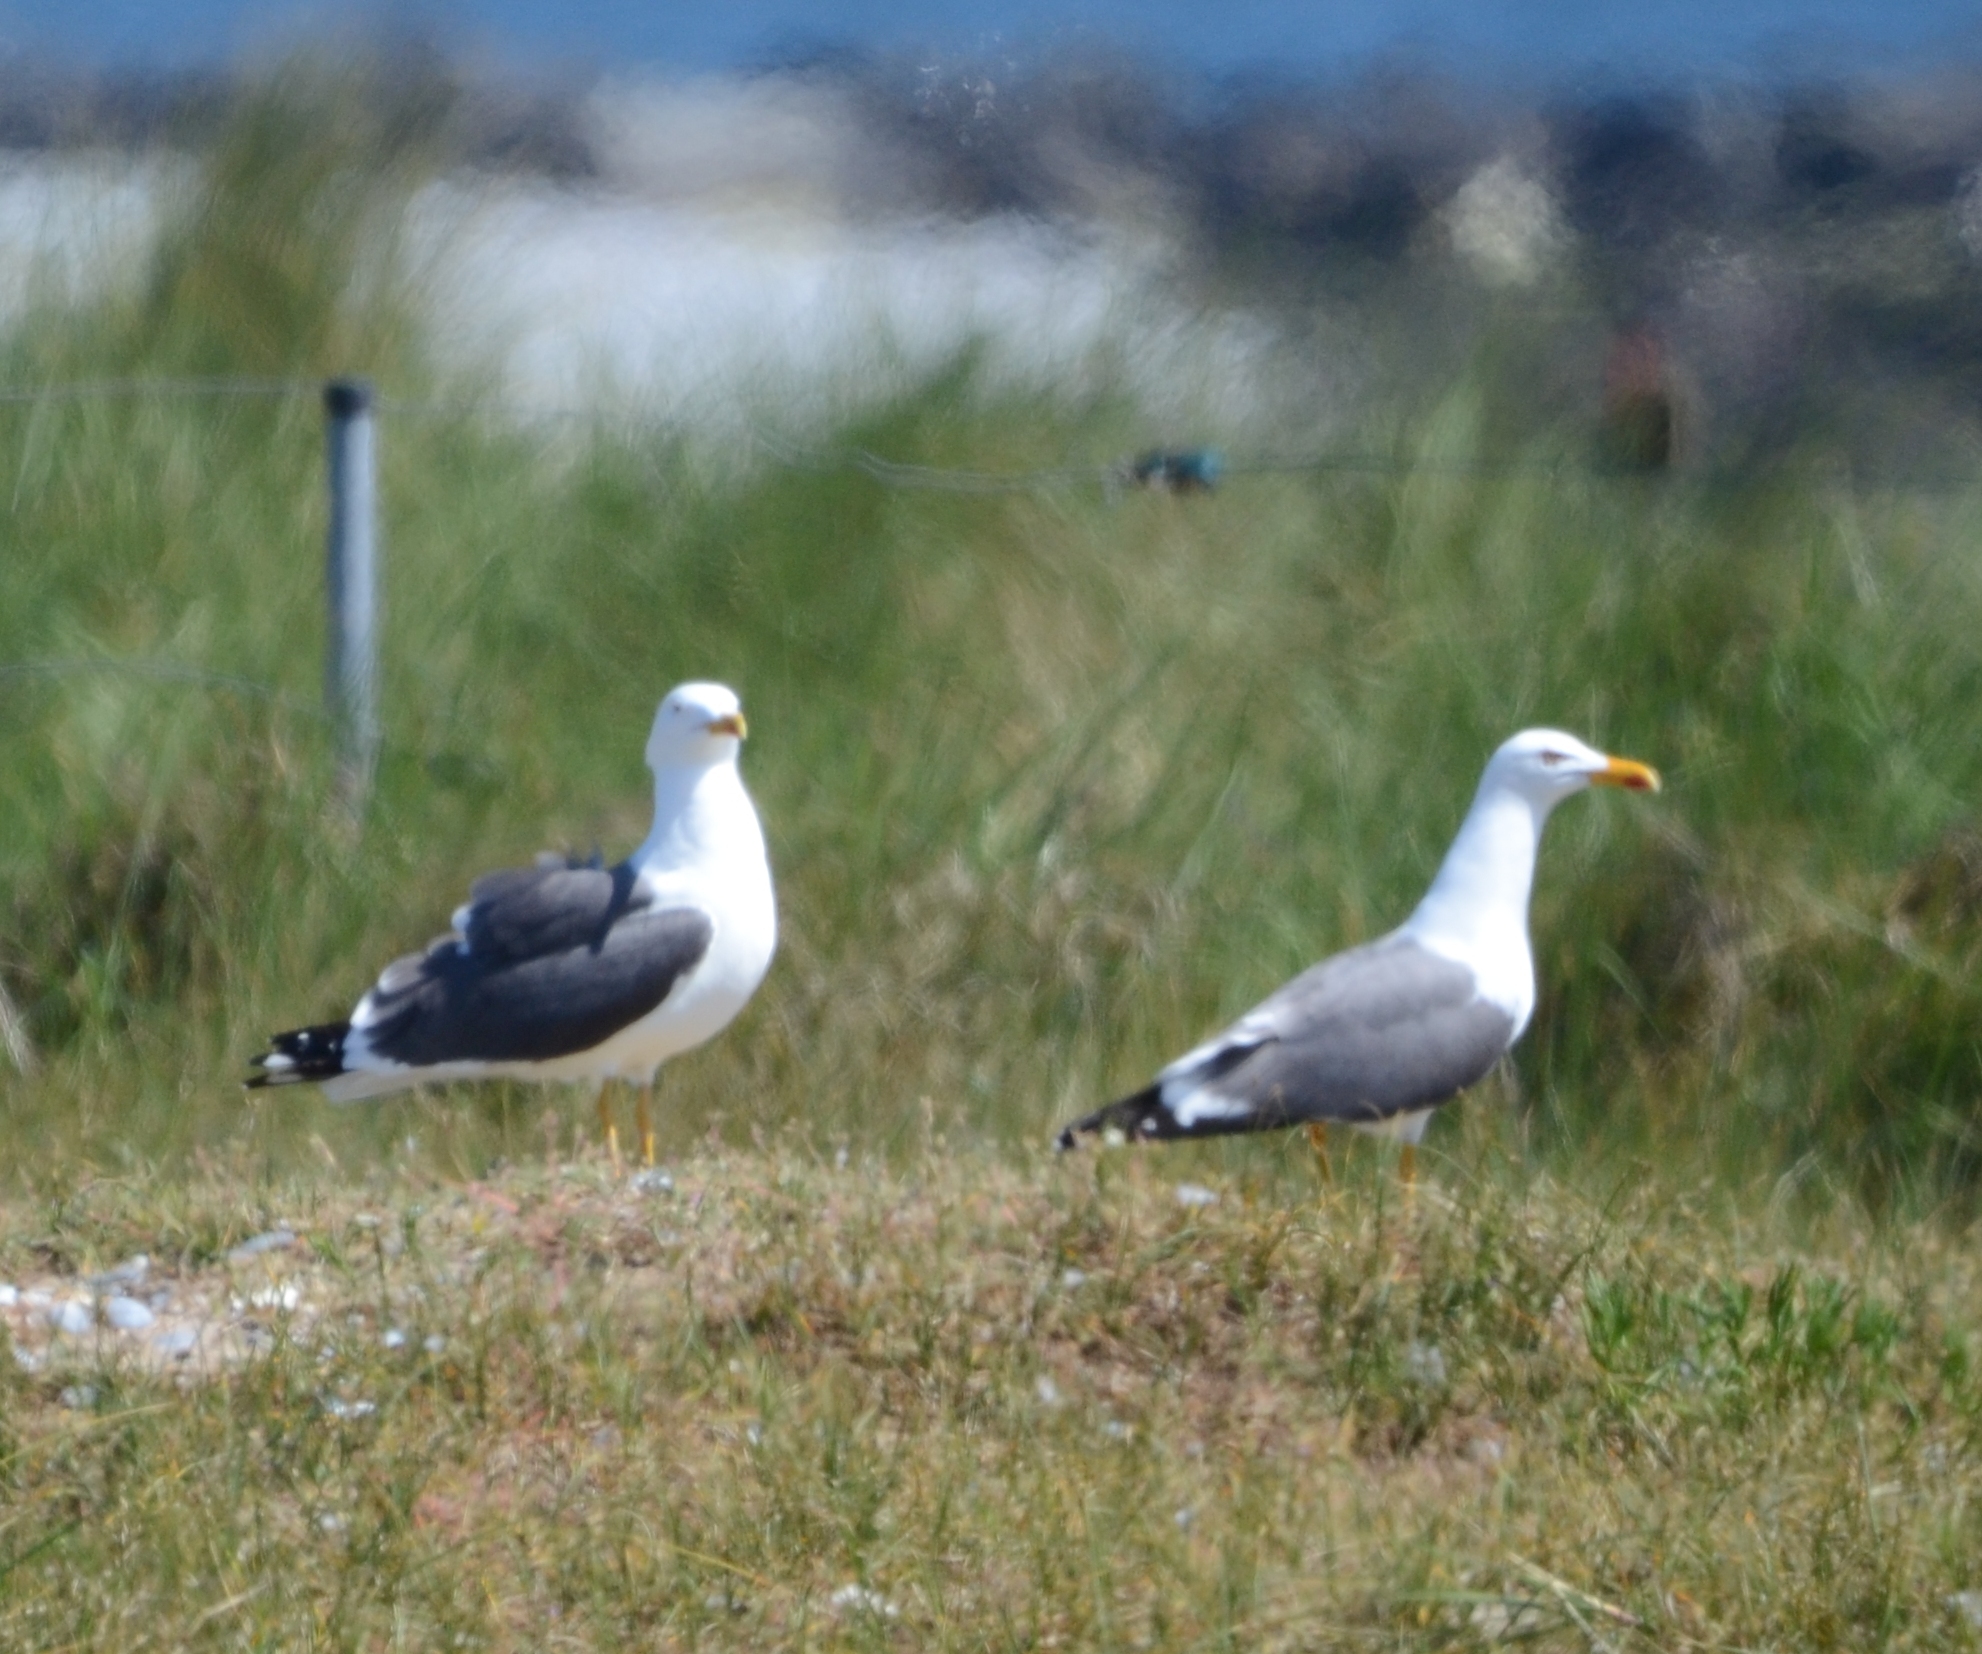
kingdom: Animalia
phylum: Chordata
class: Aves
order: Charadriiformes
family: Laridae
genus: Larus
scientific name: Larus fuscus
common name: Lesser black-backed gull
